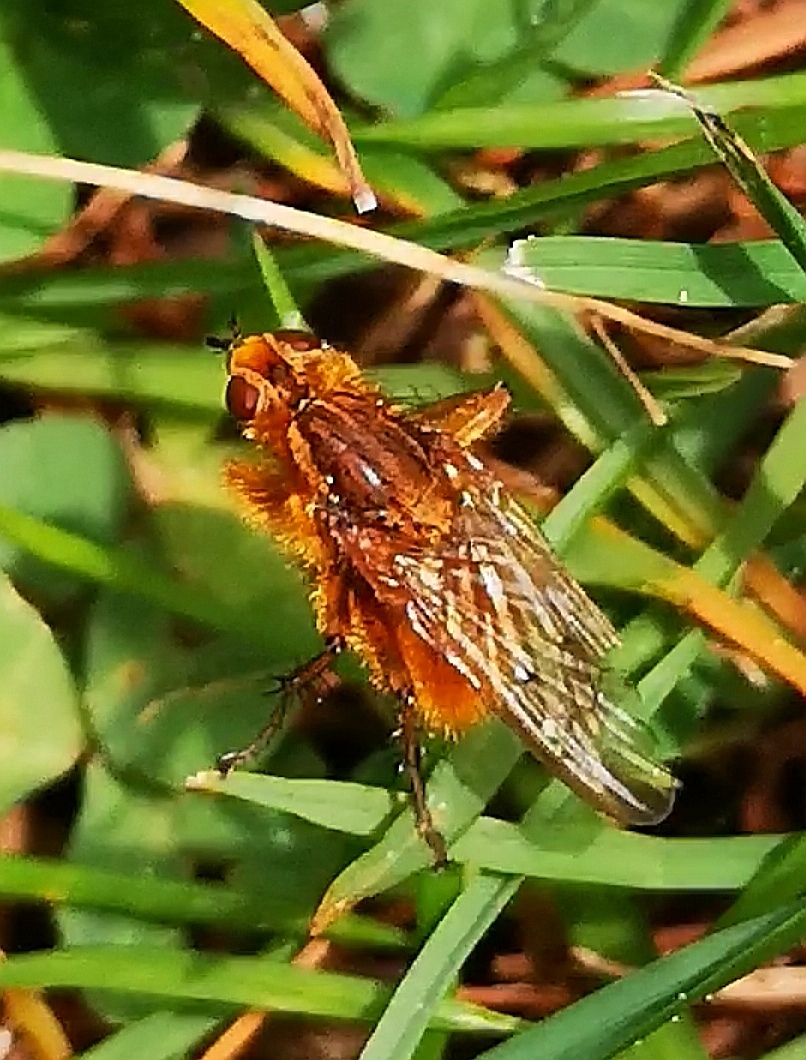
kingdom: Animalia
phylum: Arthropoda
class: Insecta
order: Diptera
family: Scathophagidae
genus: Scathophaga
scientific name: Scathophaga stercoraria
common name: Yellow dung fly
